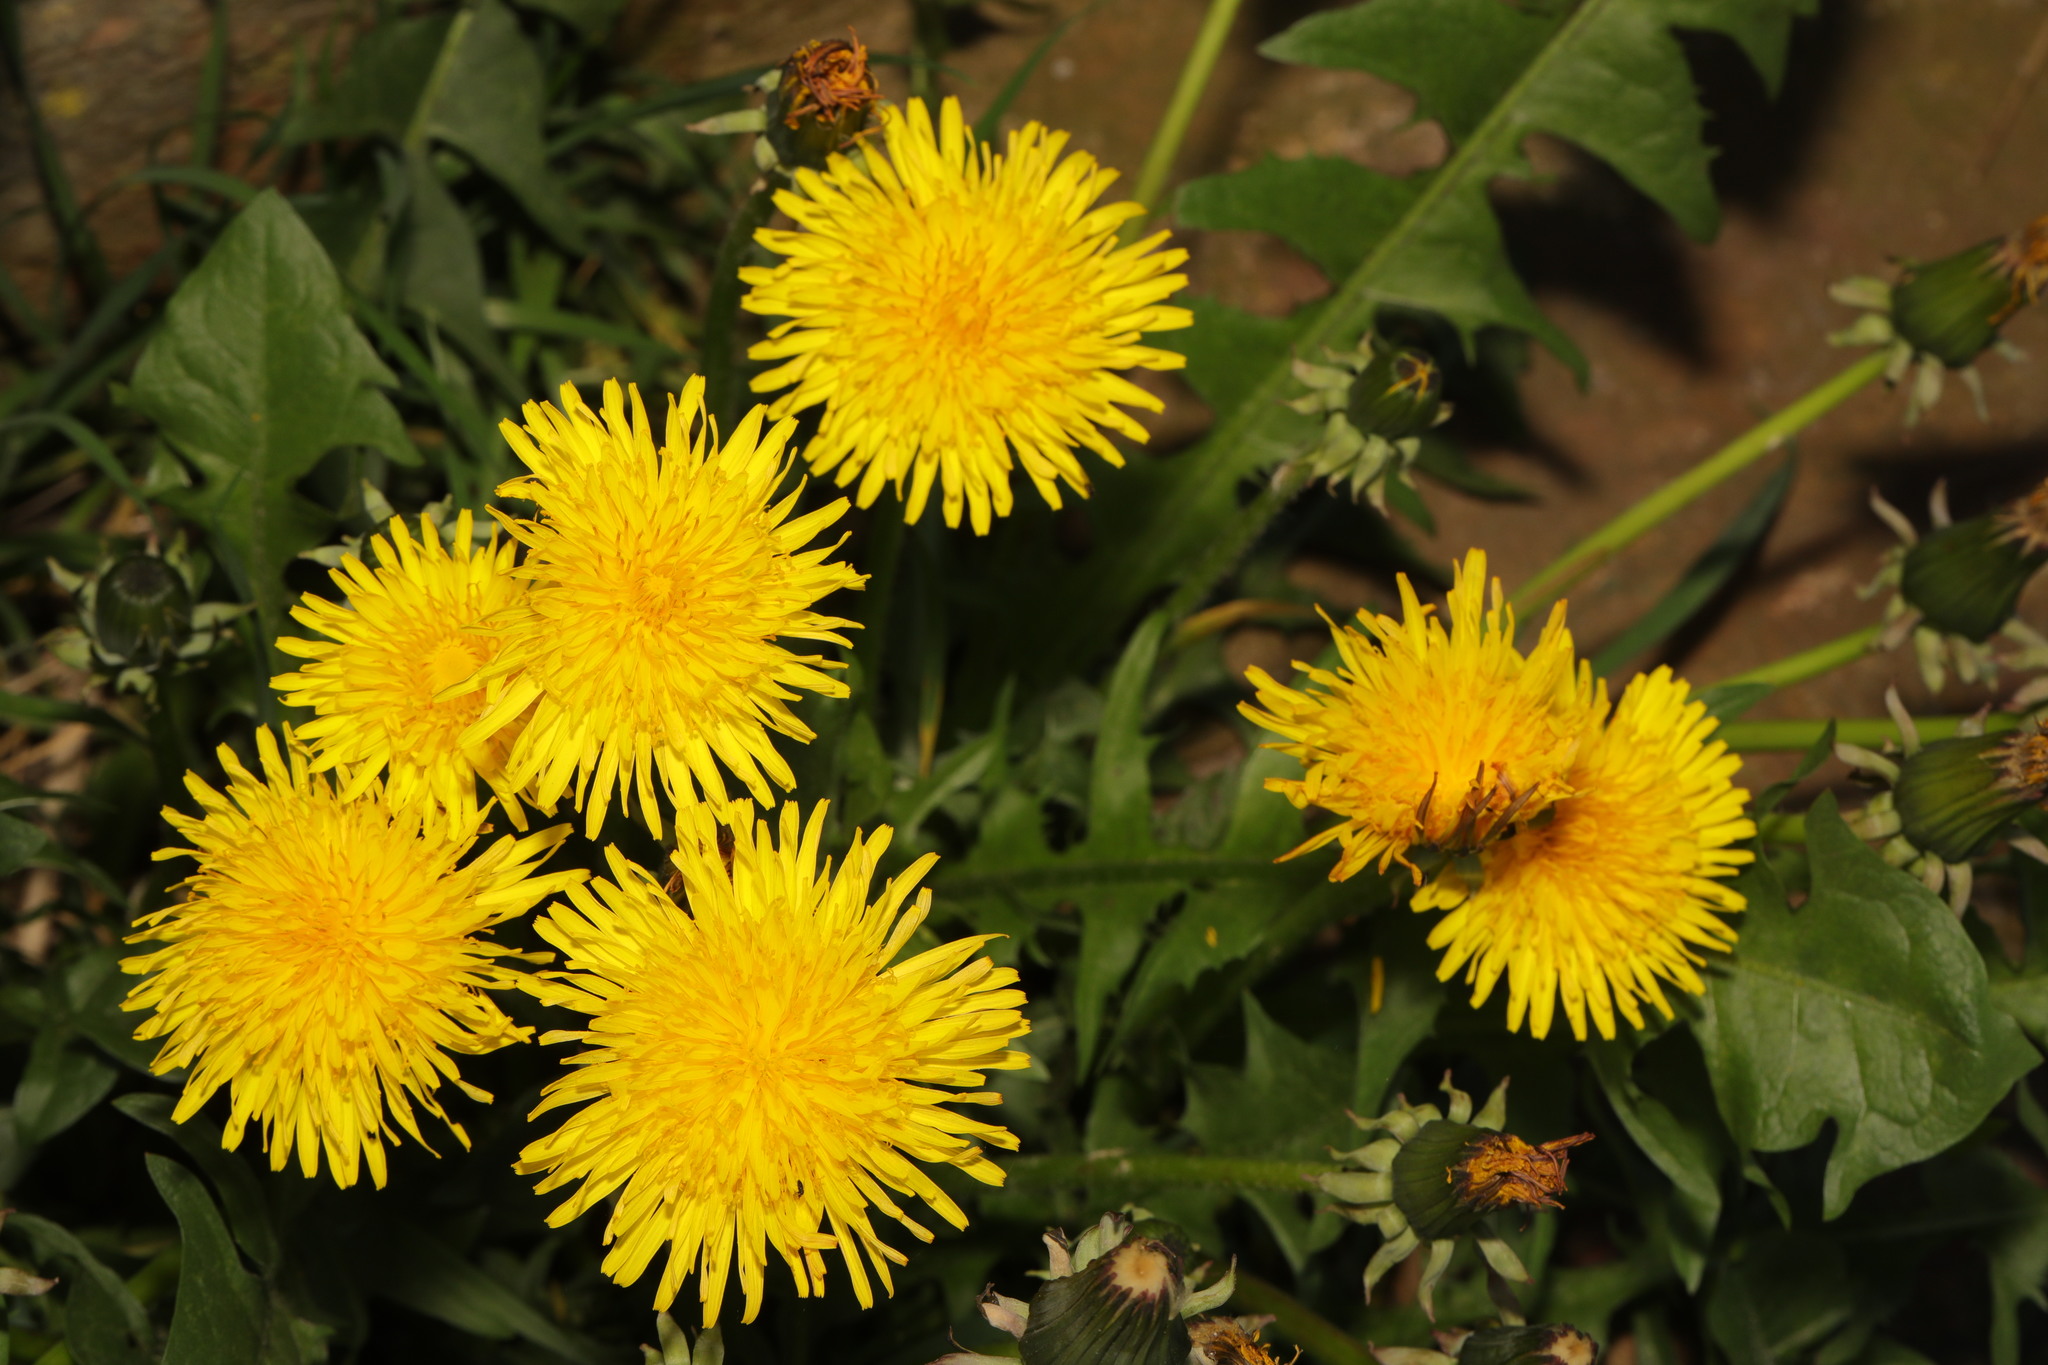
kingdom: Plantae
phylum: Tracheophyta
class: Magnoliopsida
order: Asterales
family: Asteraceae
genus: Taraxacum
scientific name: Taraxacum officinale
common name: Common dandelion
